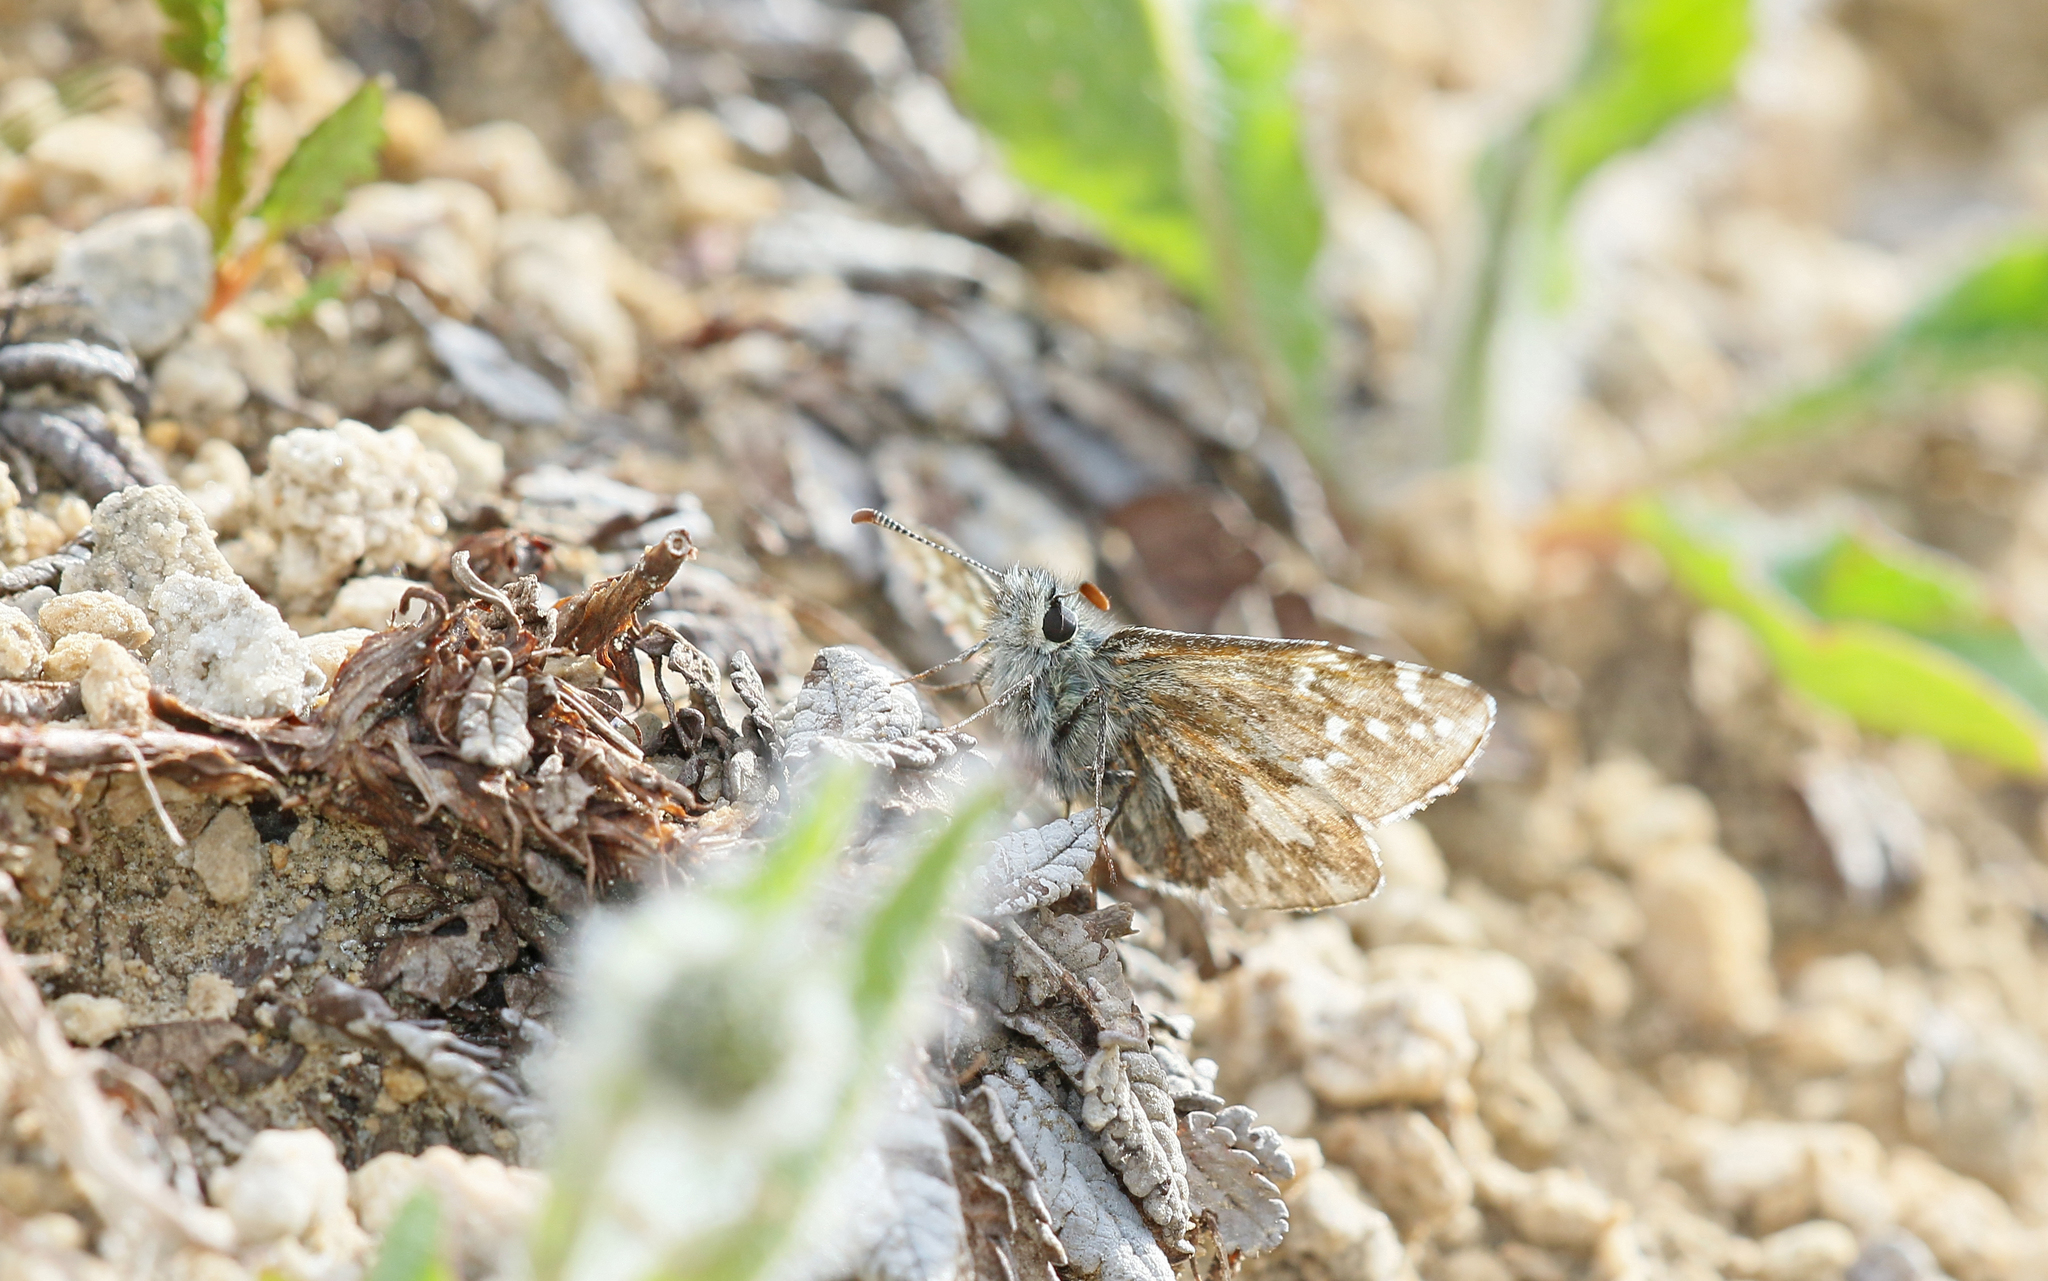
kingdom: Animalia
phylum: Arthropoda
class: Insecta
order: Lepidoptera
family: Hesperiidae
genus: Pyrgus
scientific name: Pyrgus andromedae
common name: Alpine grizzled skipper
